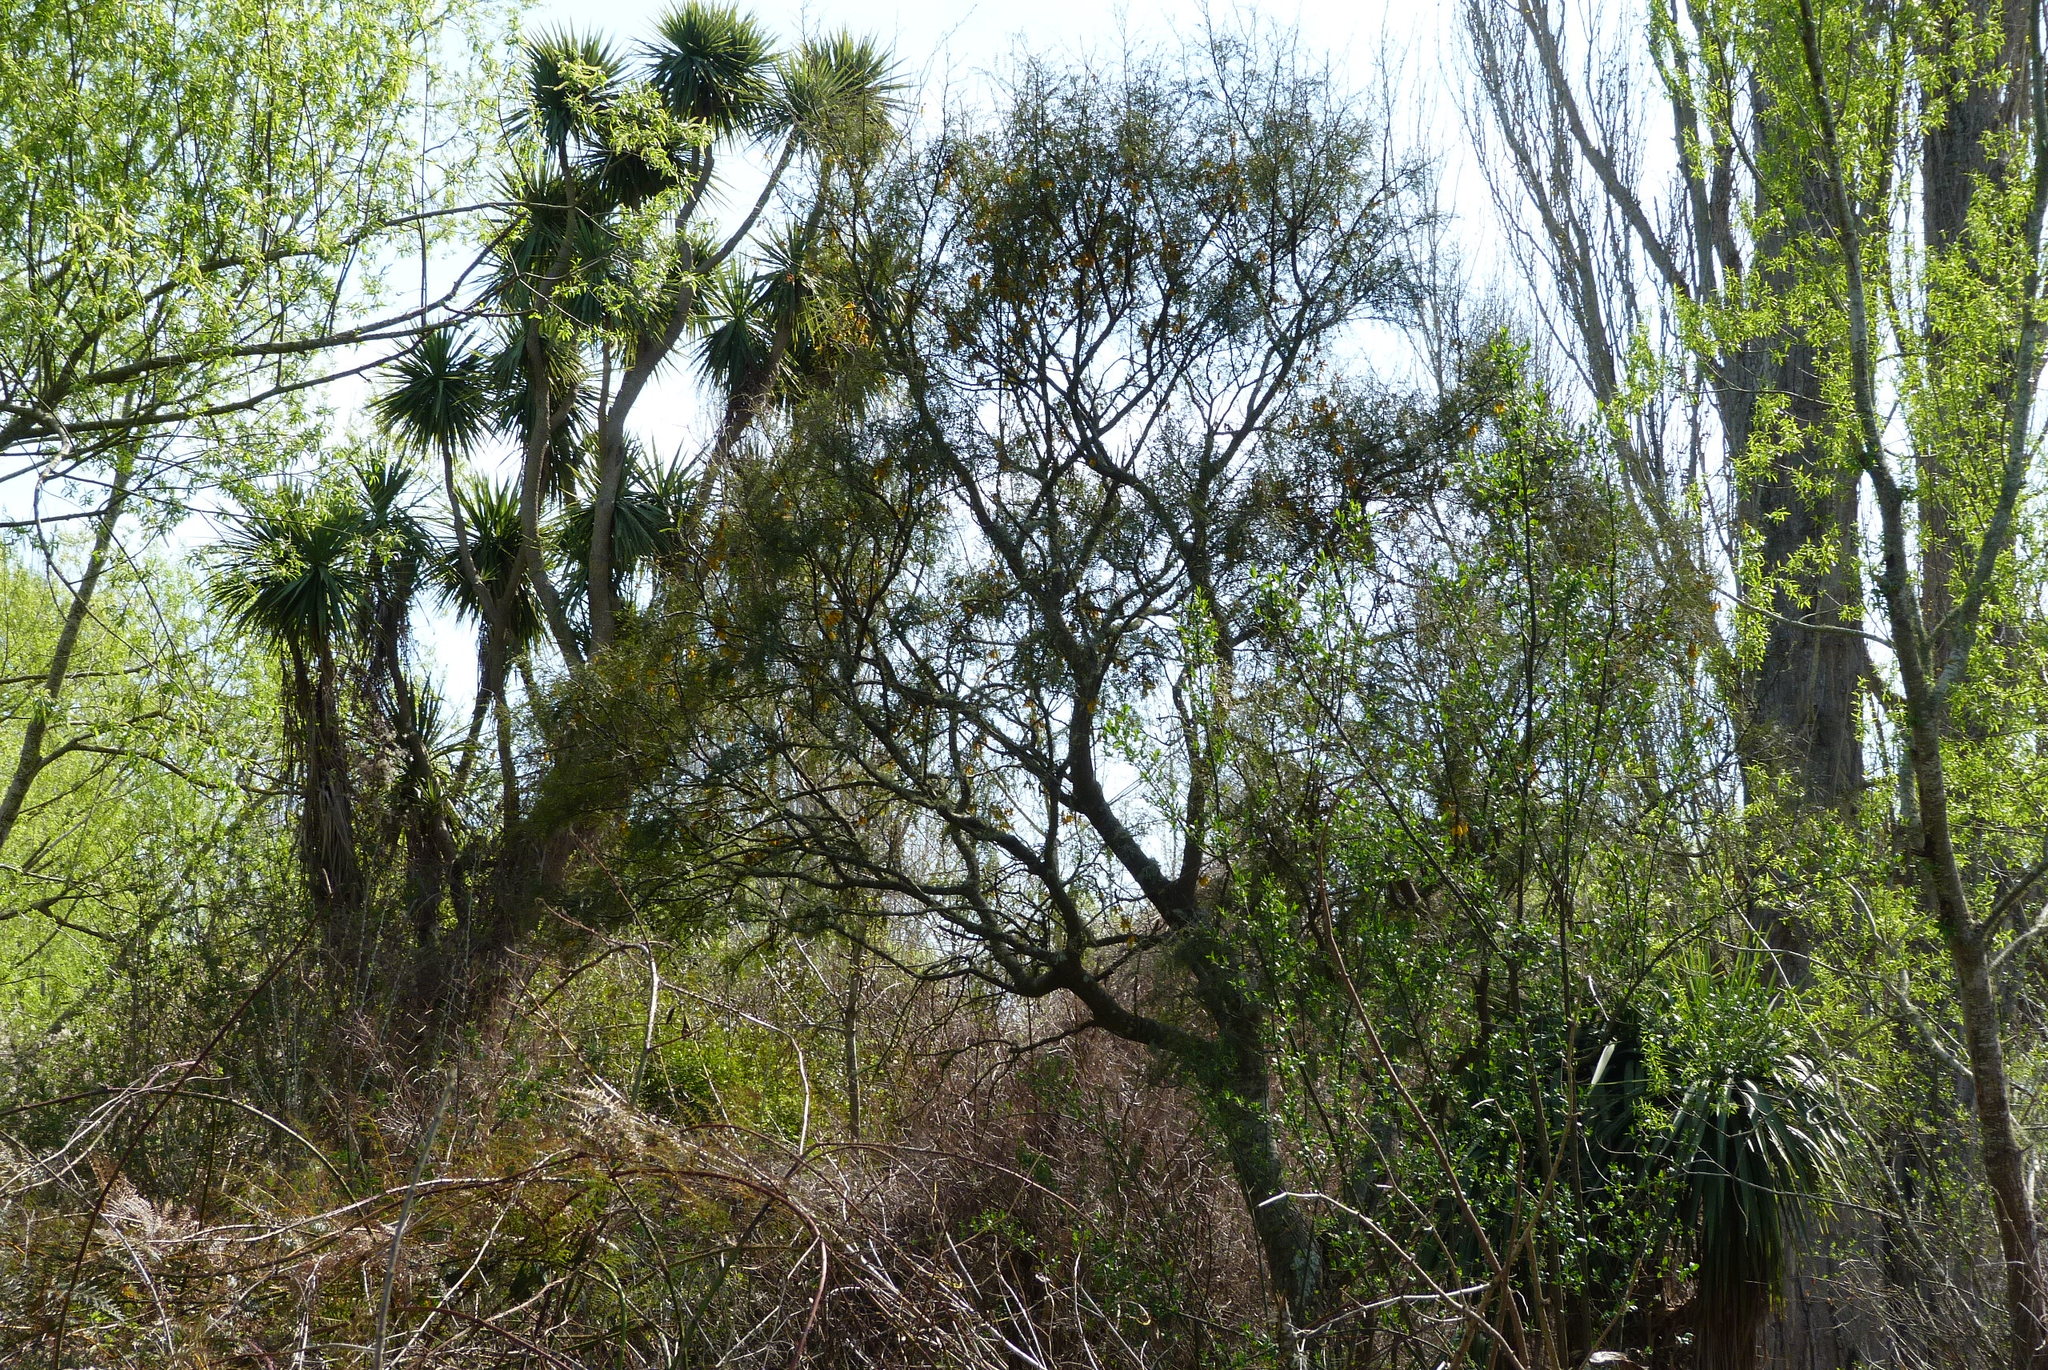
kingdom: Plantae
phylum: Tracheophyta
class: Magnoliopsida
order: Fabales
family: Fabaceae
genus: Sophora
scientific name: Sophora microphylla
